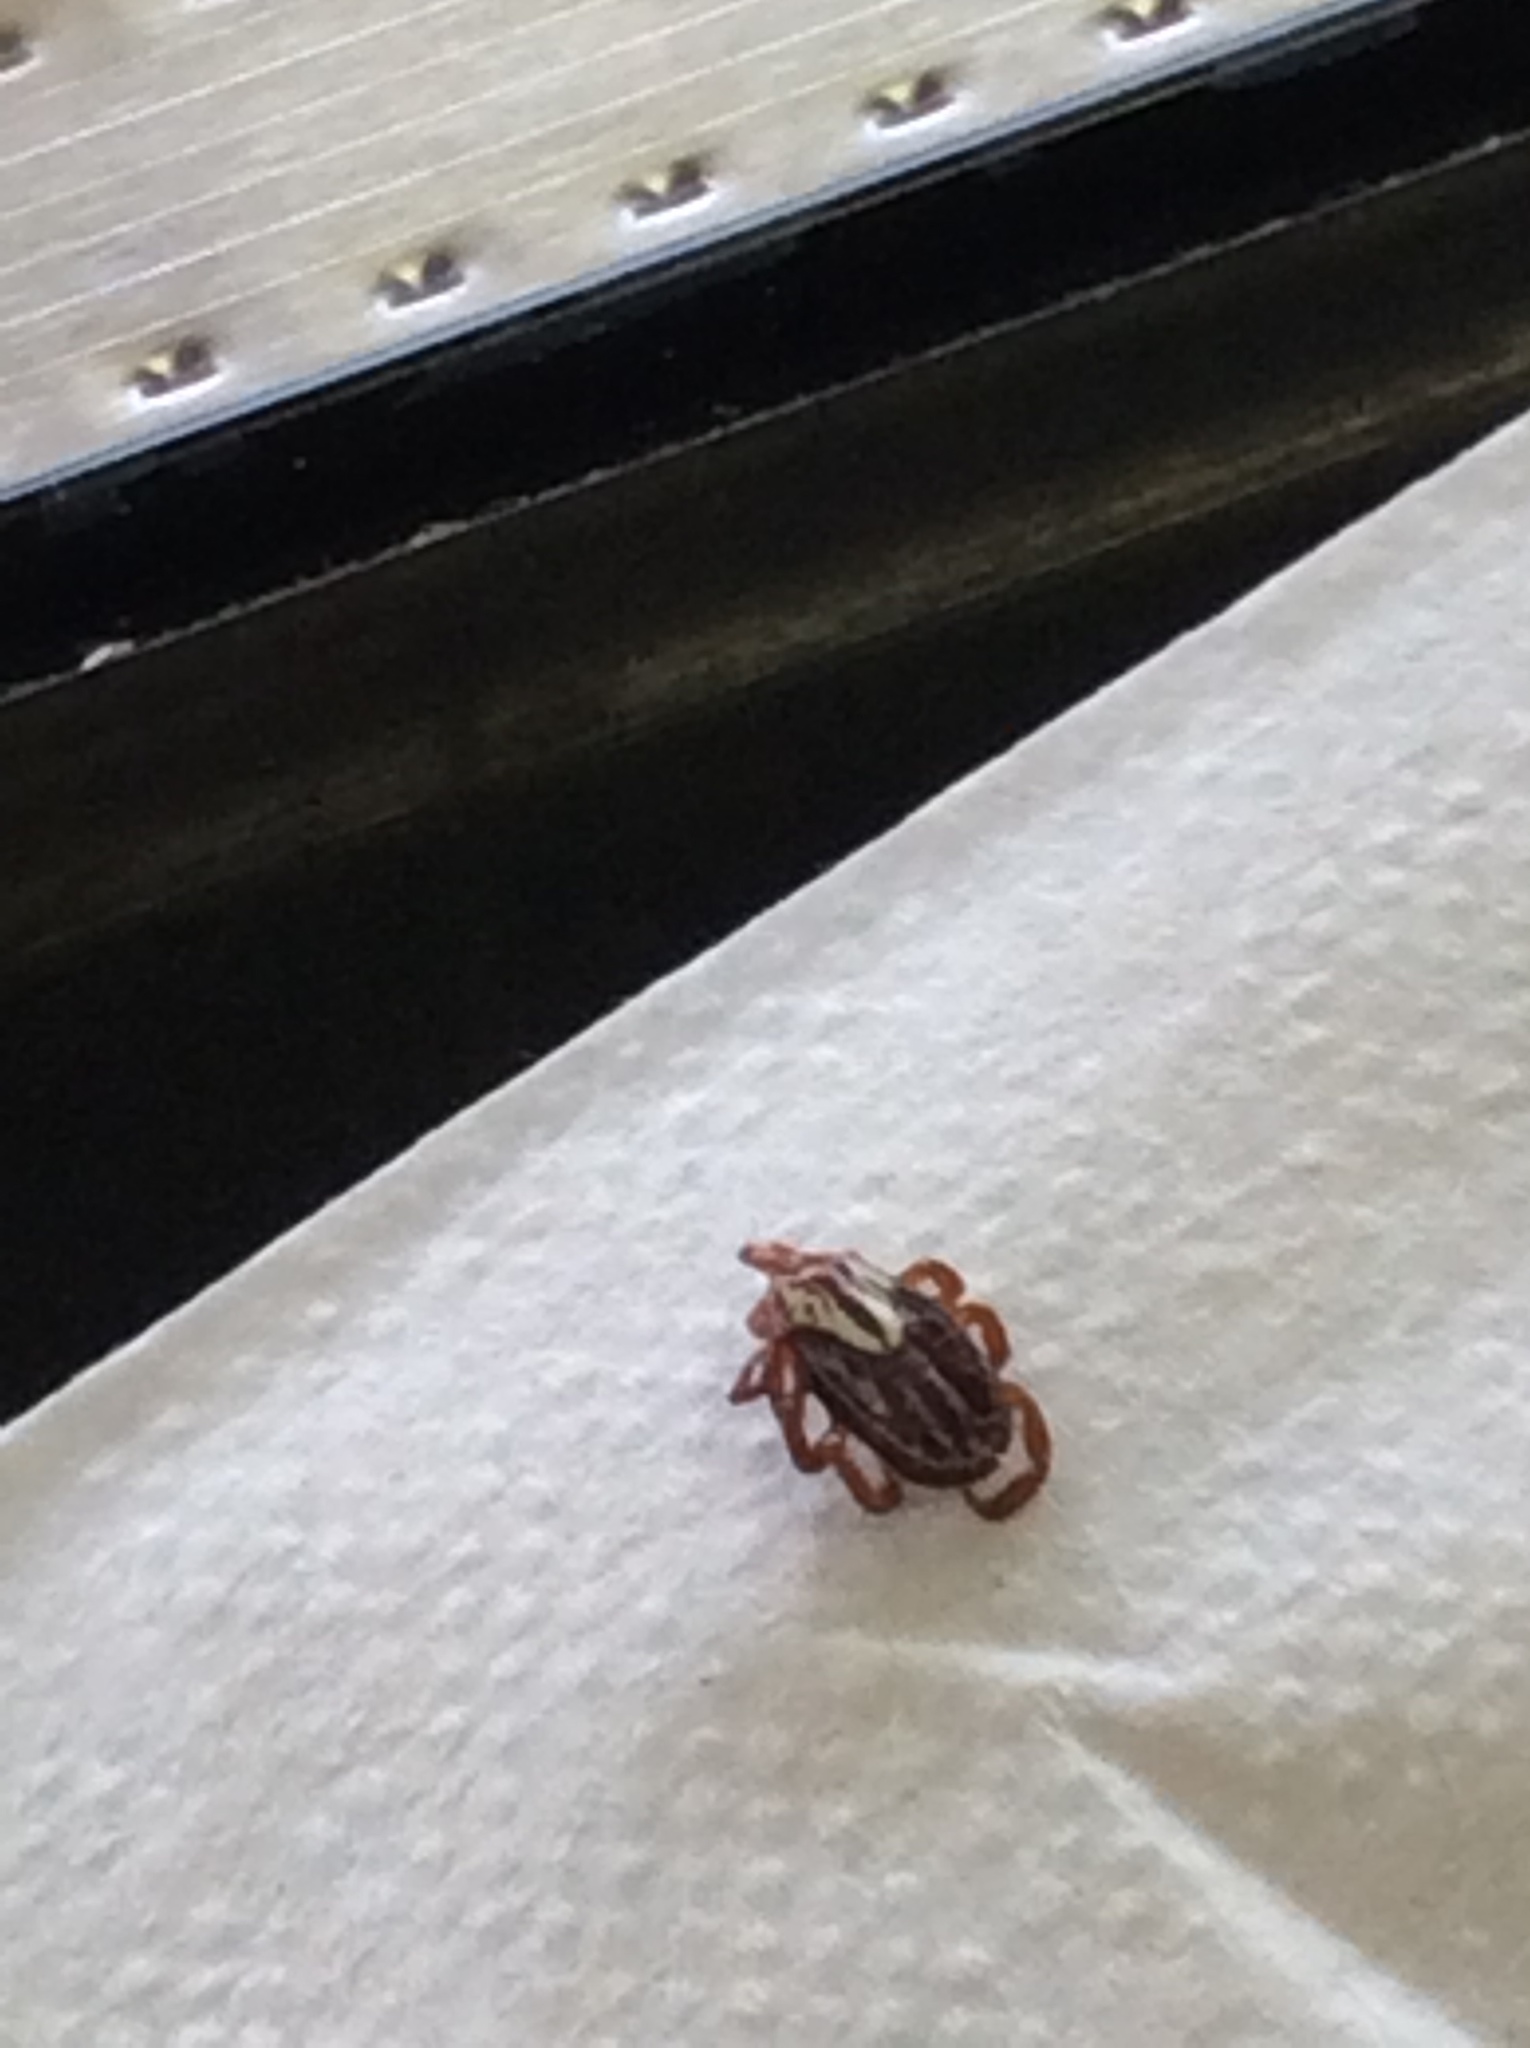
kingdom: Animalia
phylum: Arthropoda
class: Arachnida
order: Ixodida
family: Ixodidae
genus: Amblyomma
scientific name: Amblyomma maculatum
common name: Gulf coast tick
